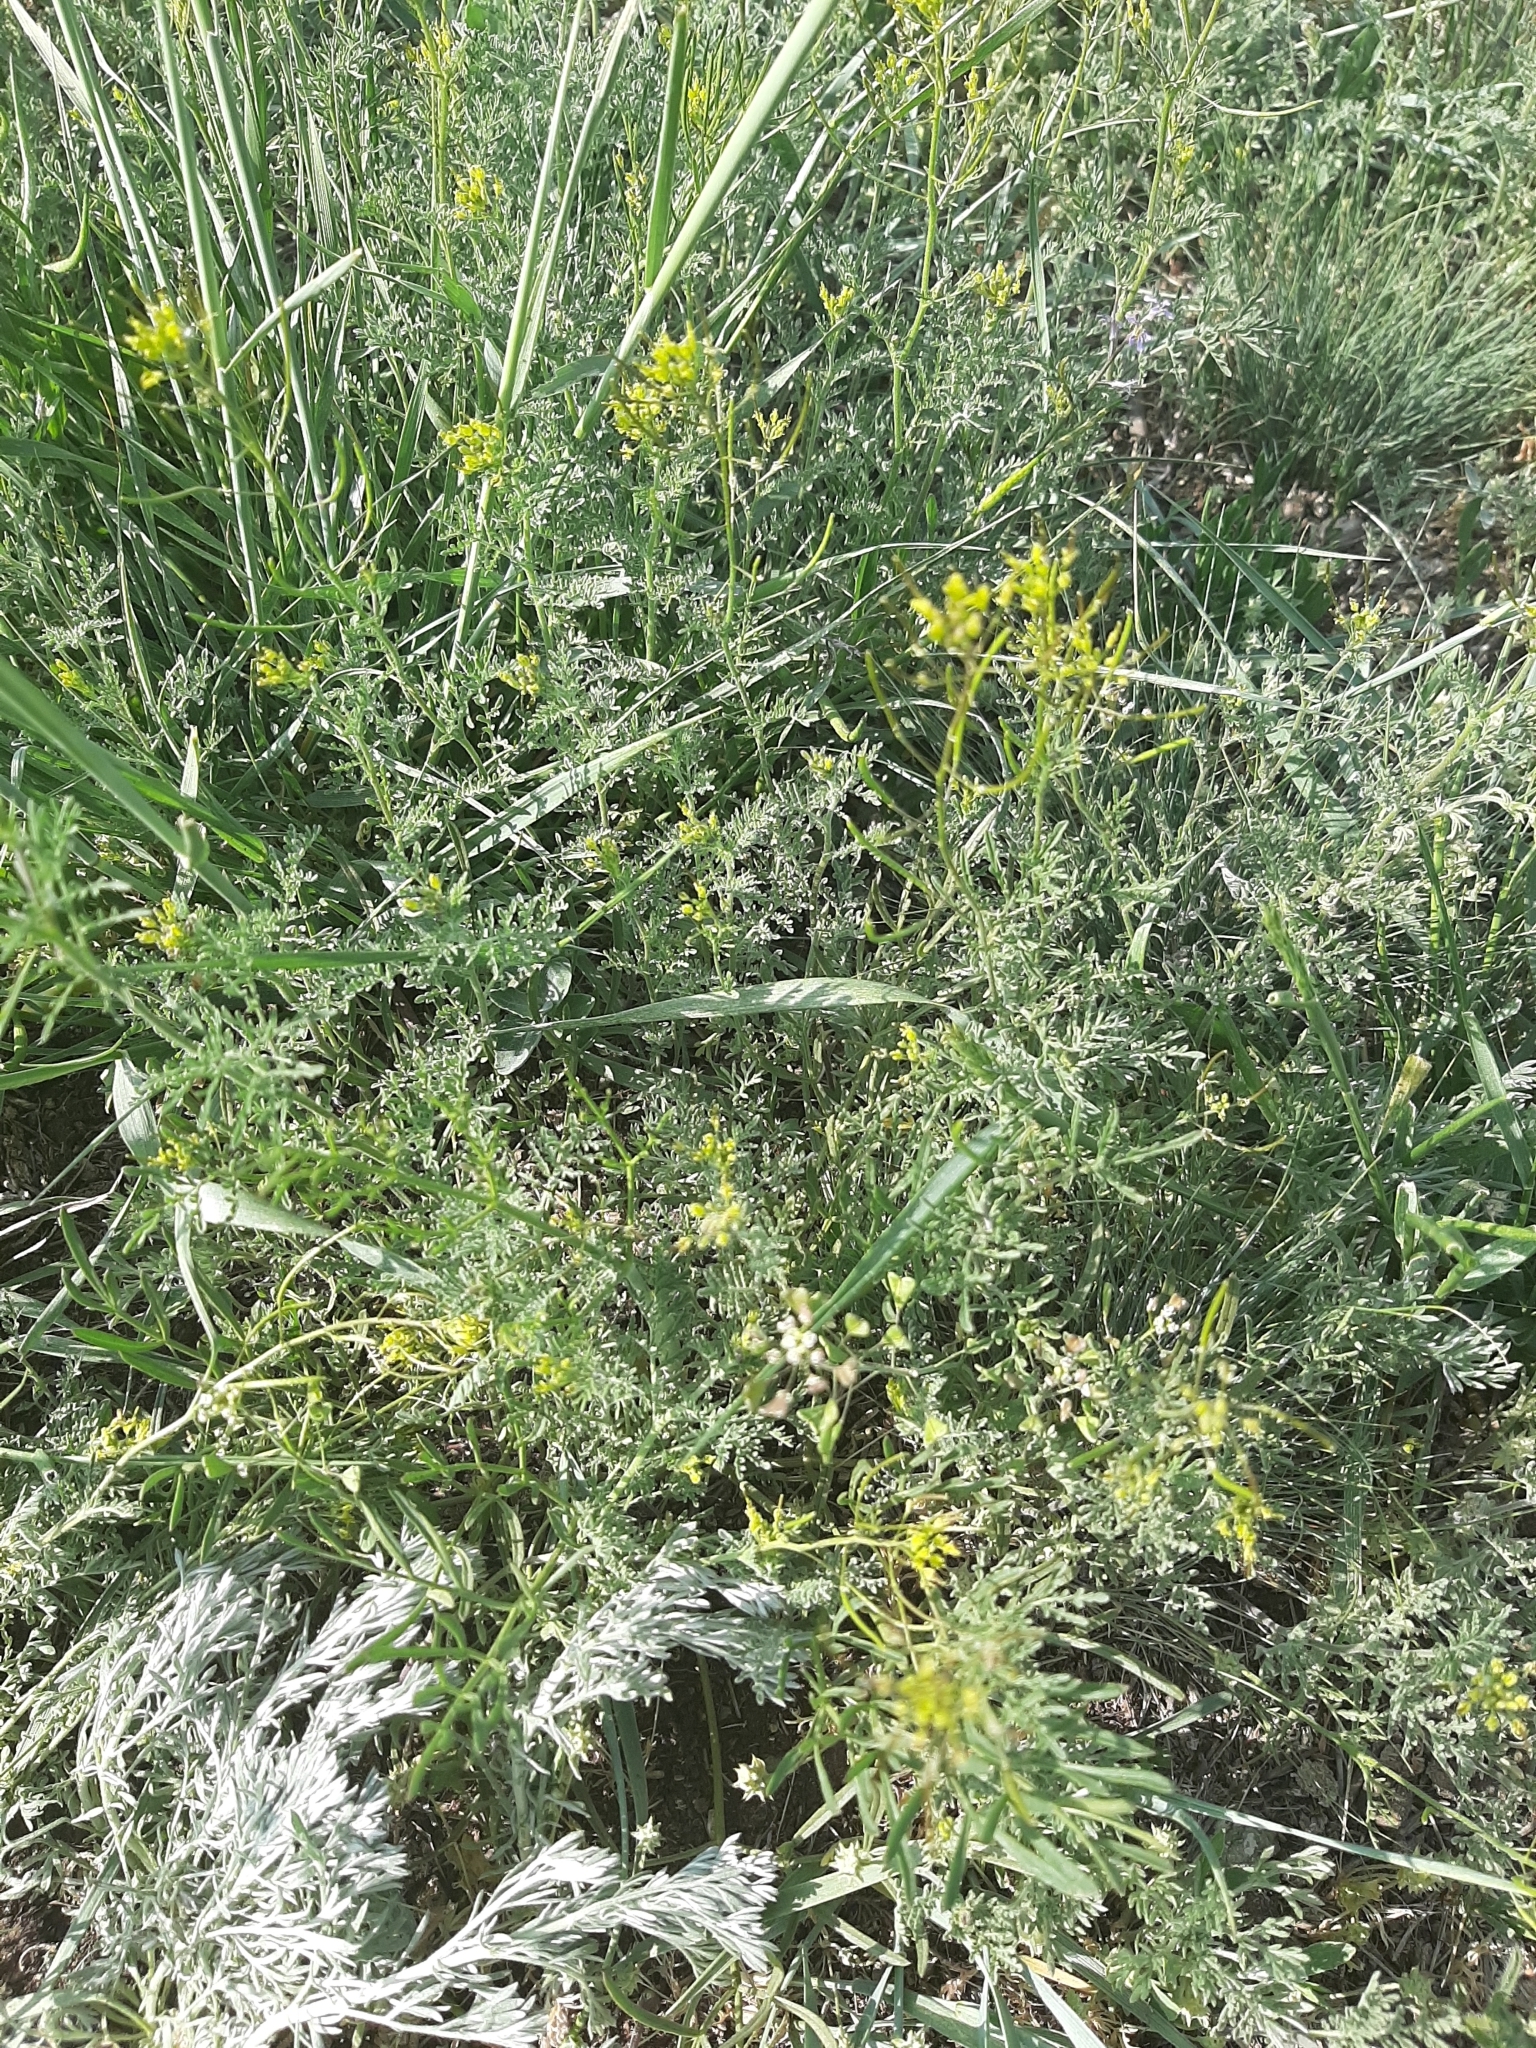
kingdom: Plantae
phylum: Tracheophyta
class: Magnoliopsida
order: Brassicales
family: Brassicaceae
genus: Descurainia
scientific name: Descurainia sophia
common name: Flixweed
